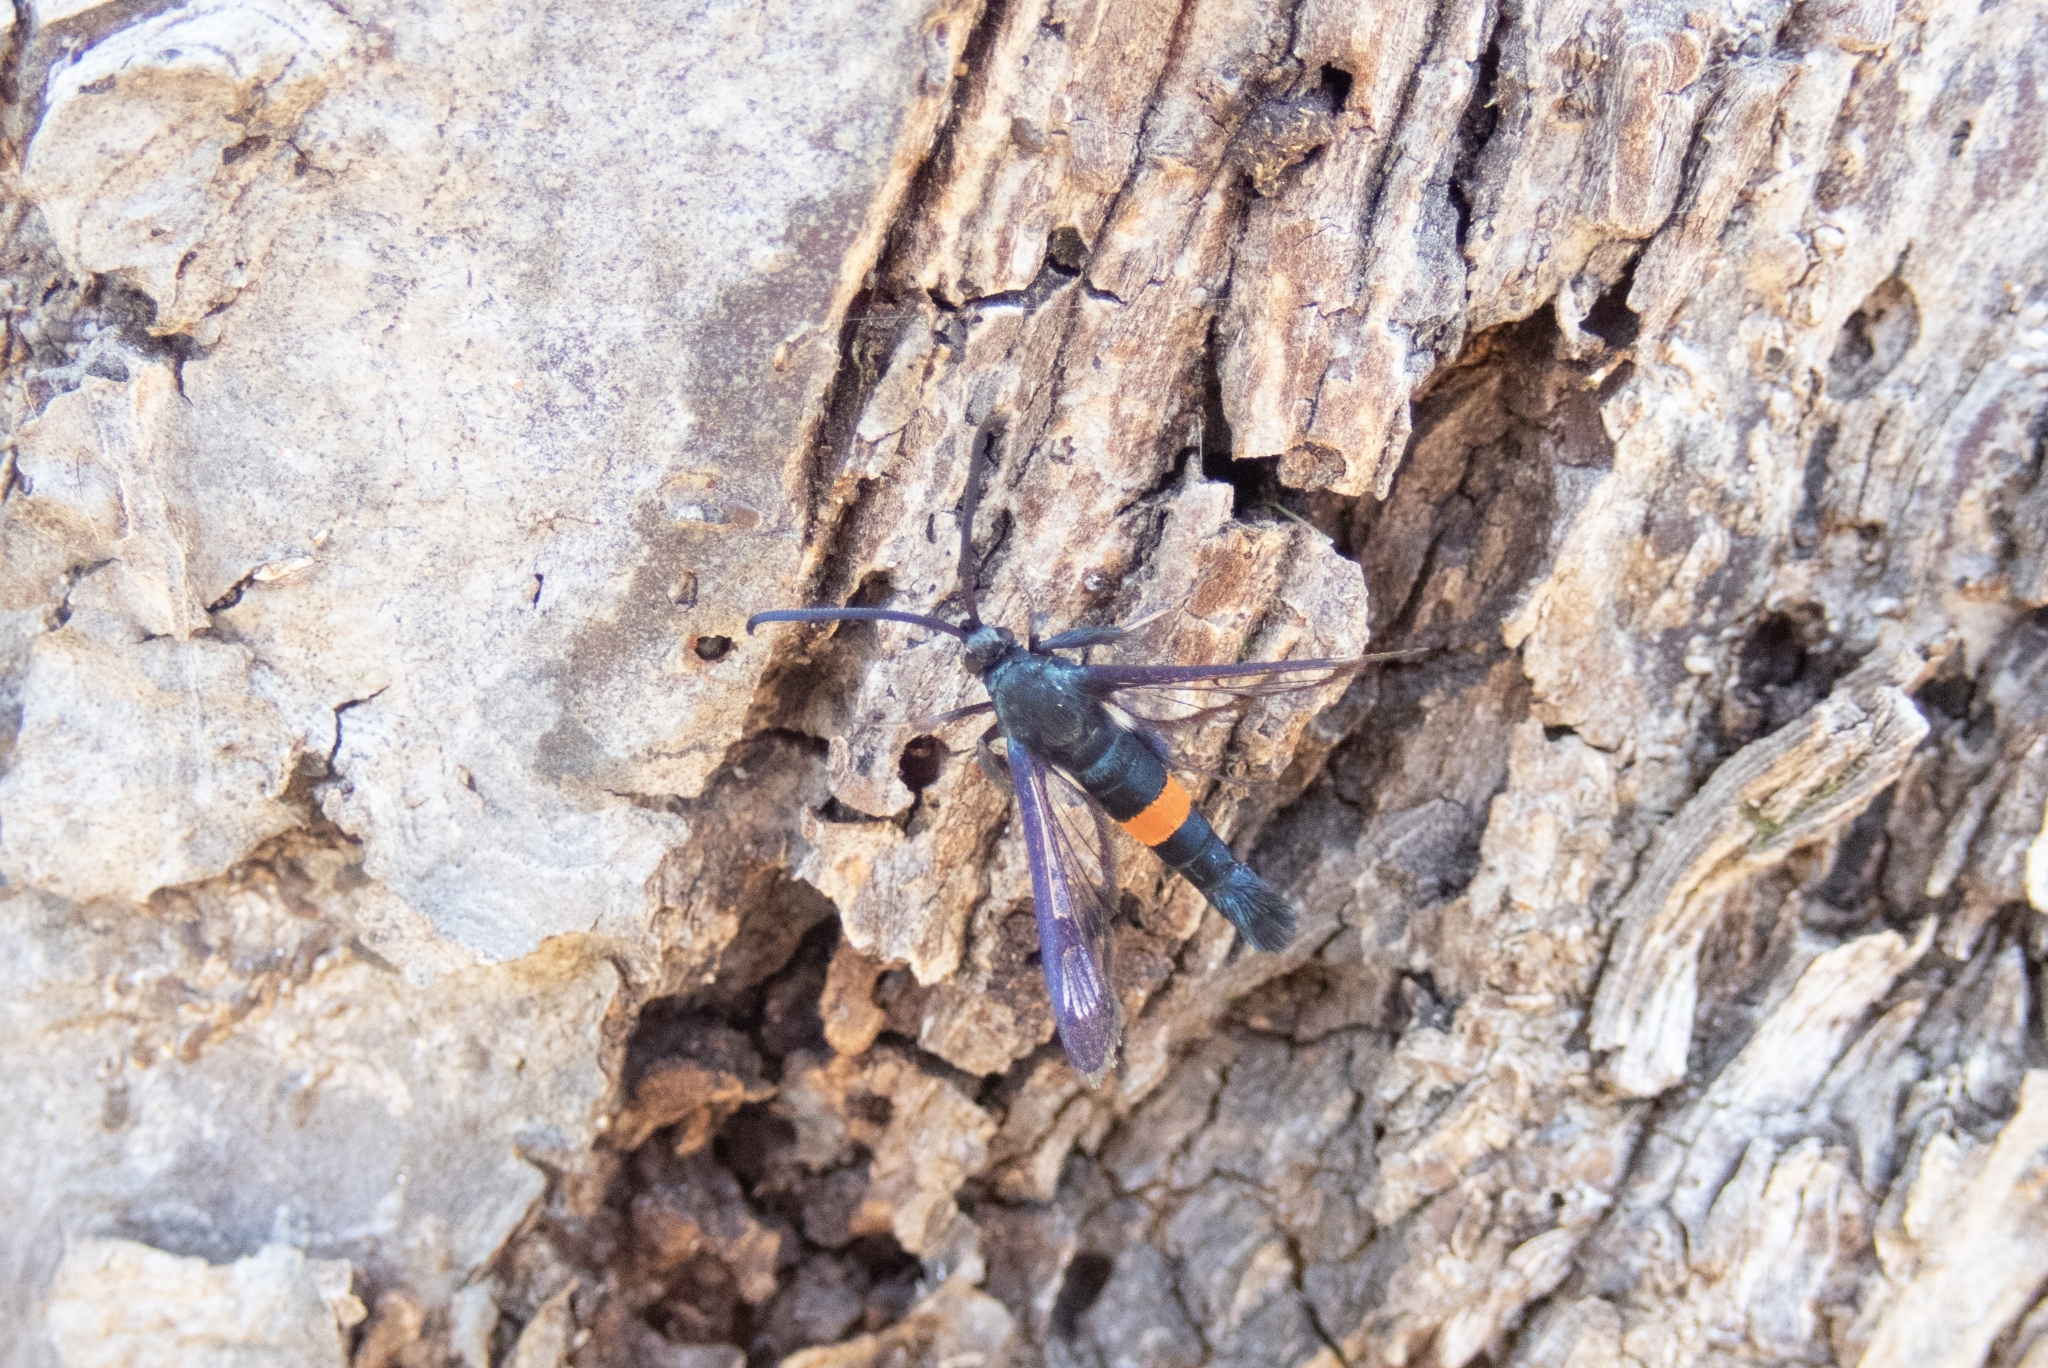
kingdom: Animalia
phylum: Arthropoda
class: Insecta
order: Lepidoptera
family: Sesiidae
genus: Synanthedon
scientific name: Synanthedon myopaeformis
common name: Red-belted clearwing
